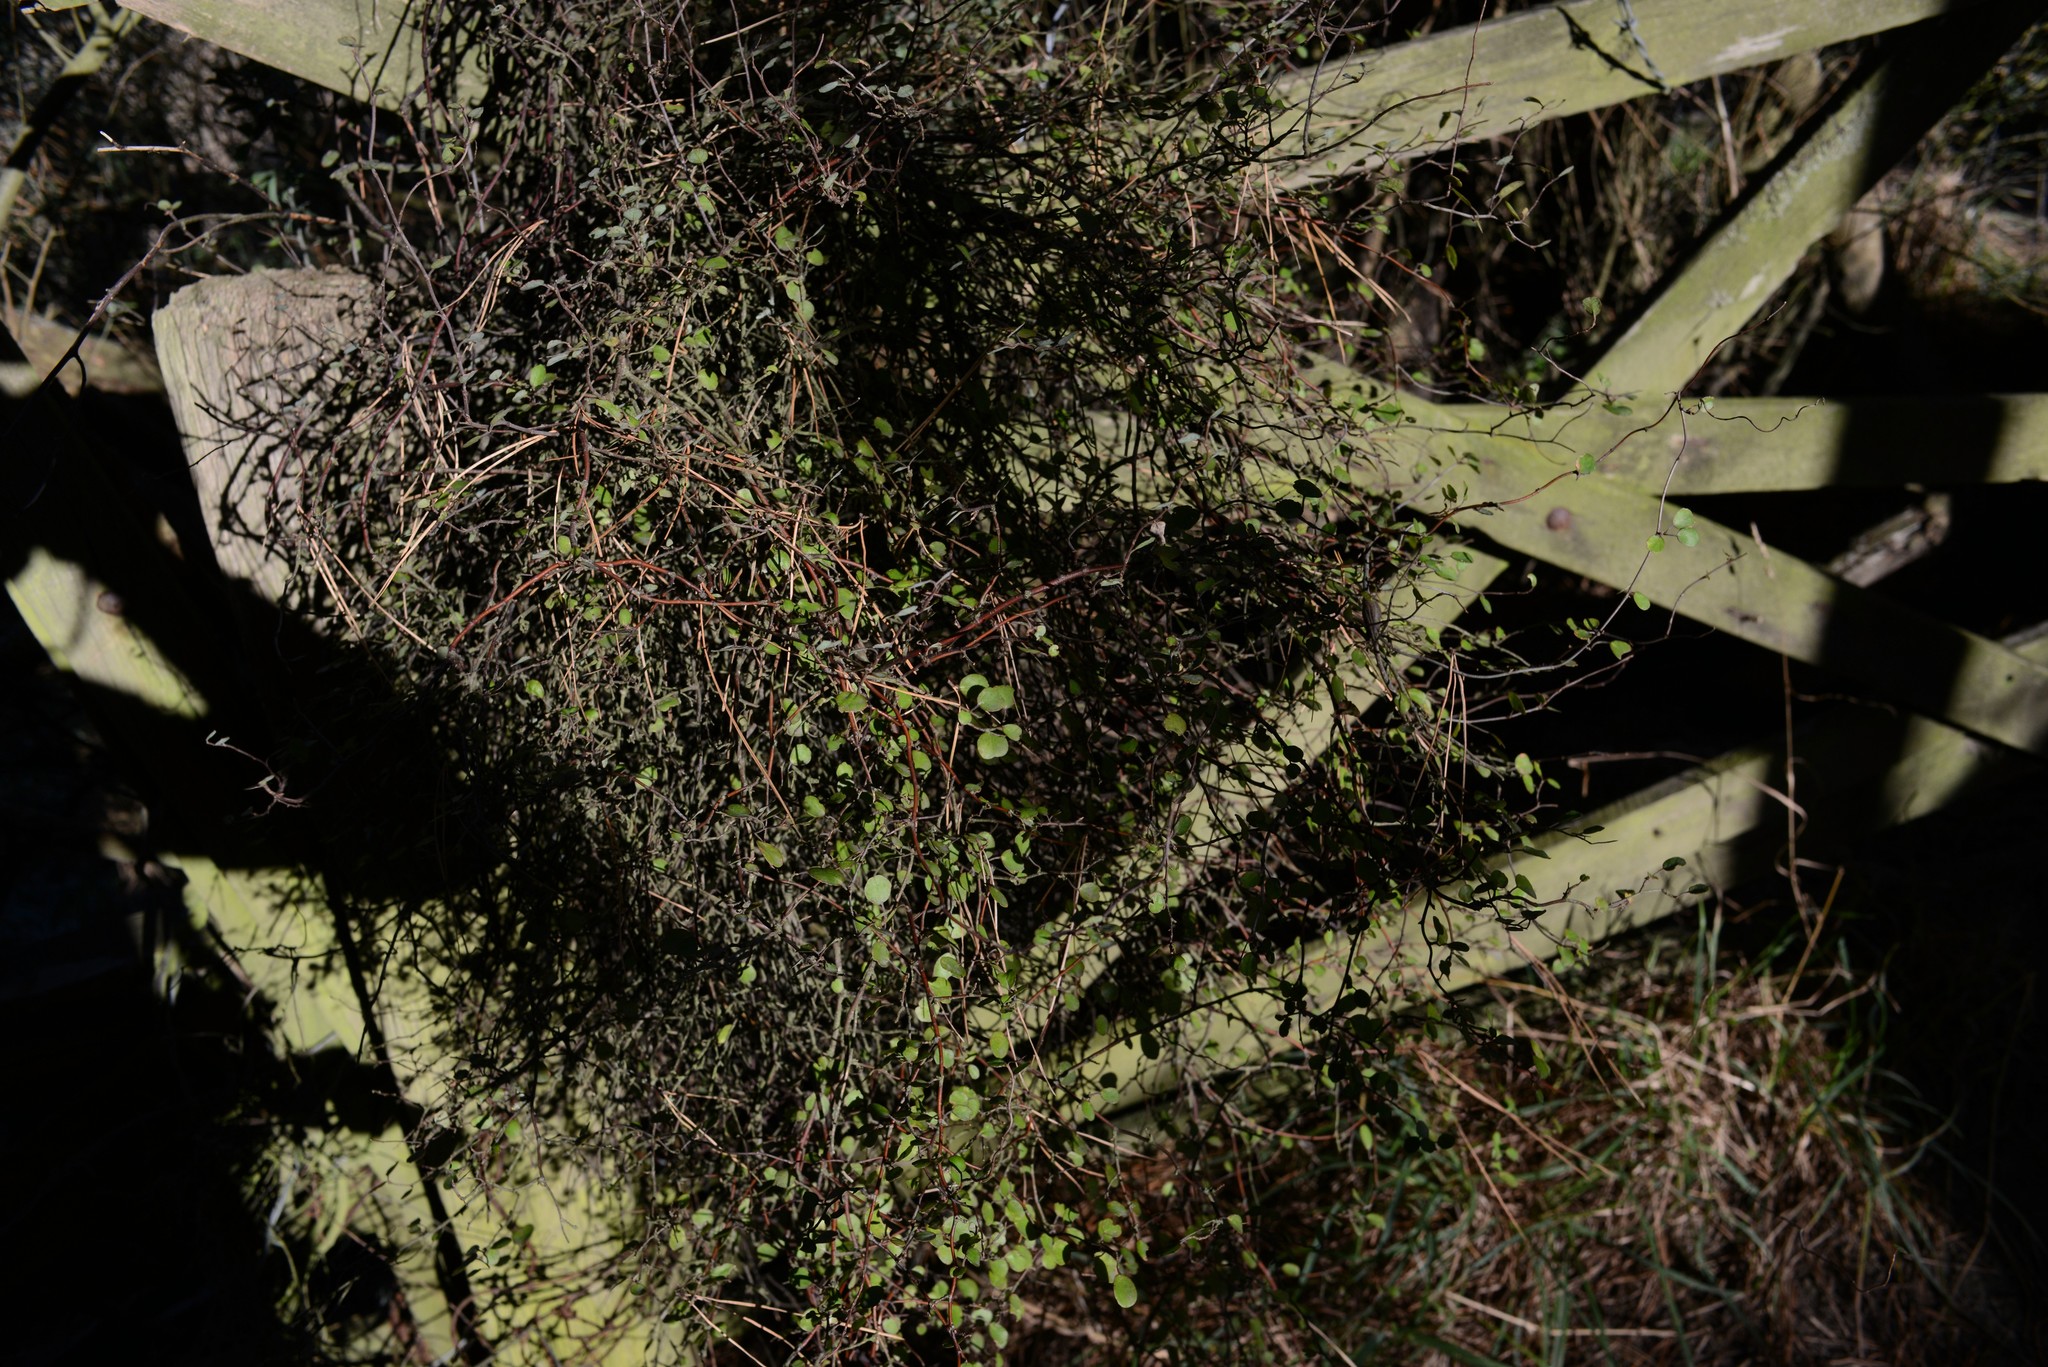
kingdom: Plantae
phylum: Tracheophyta
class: Magnoliopsida
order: Caryophyllales
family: Polygonaceae
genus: Muehlenbeckia
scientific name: Muehlenbeckia complexa
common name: Wireplant
